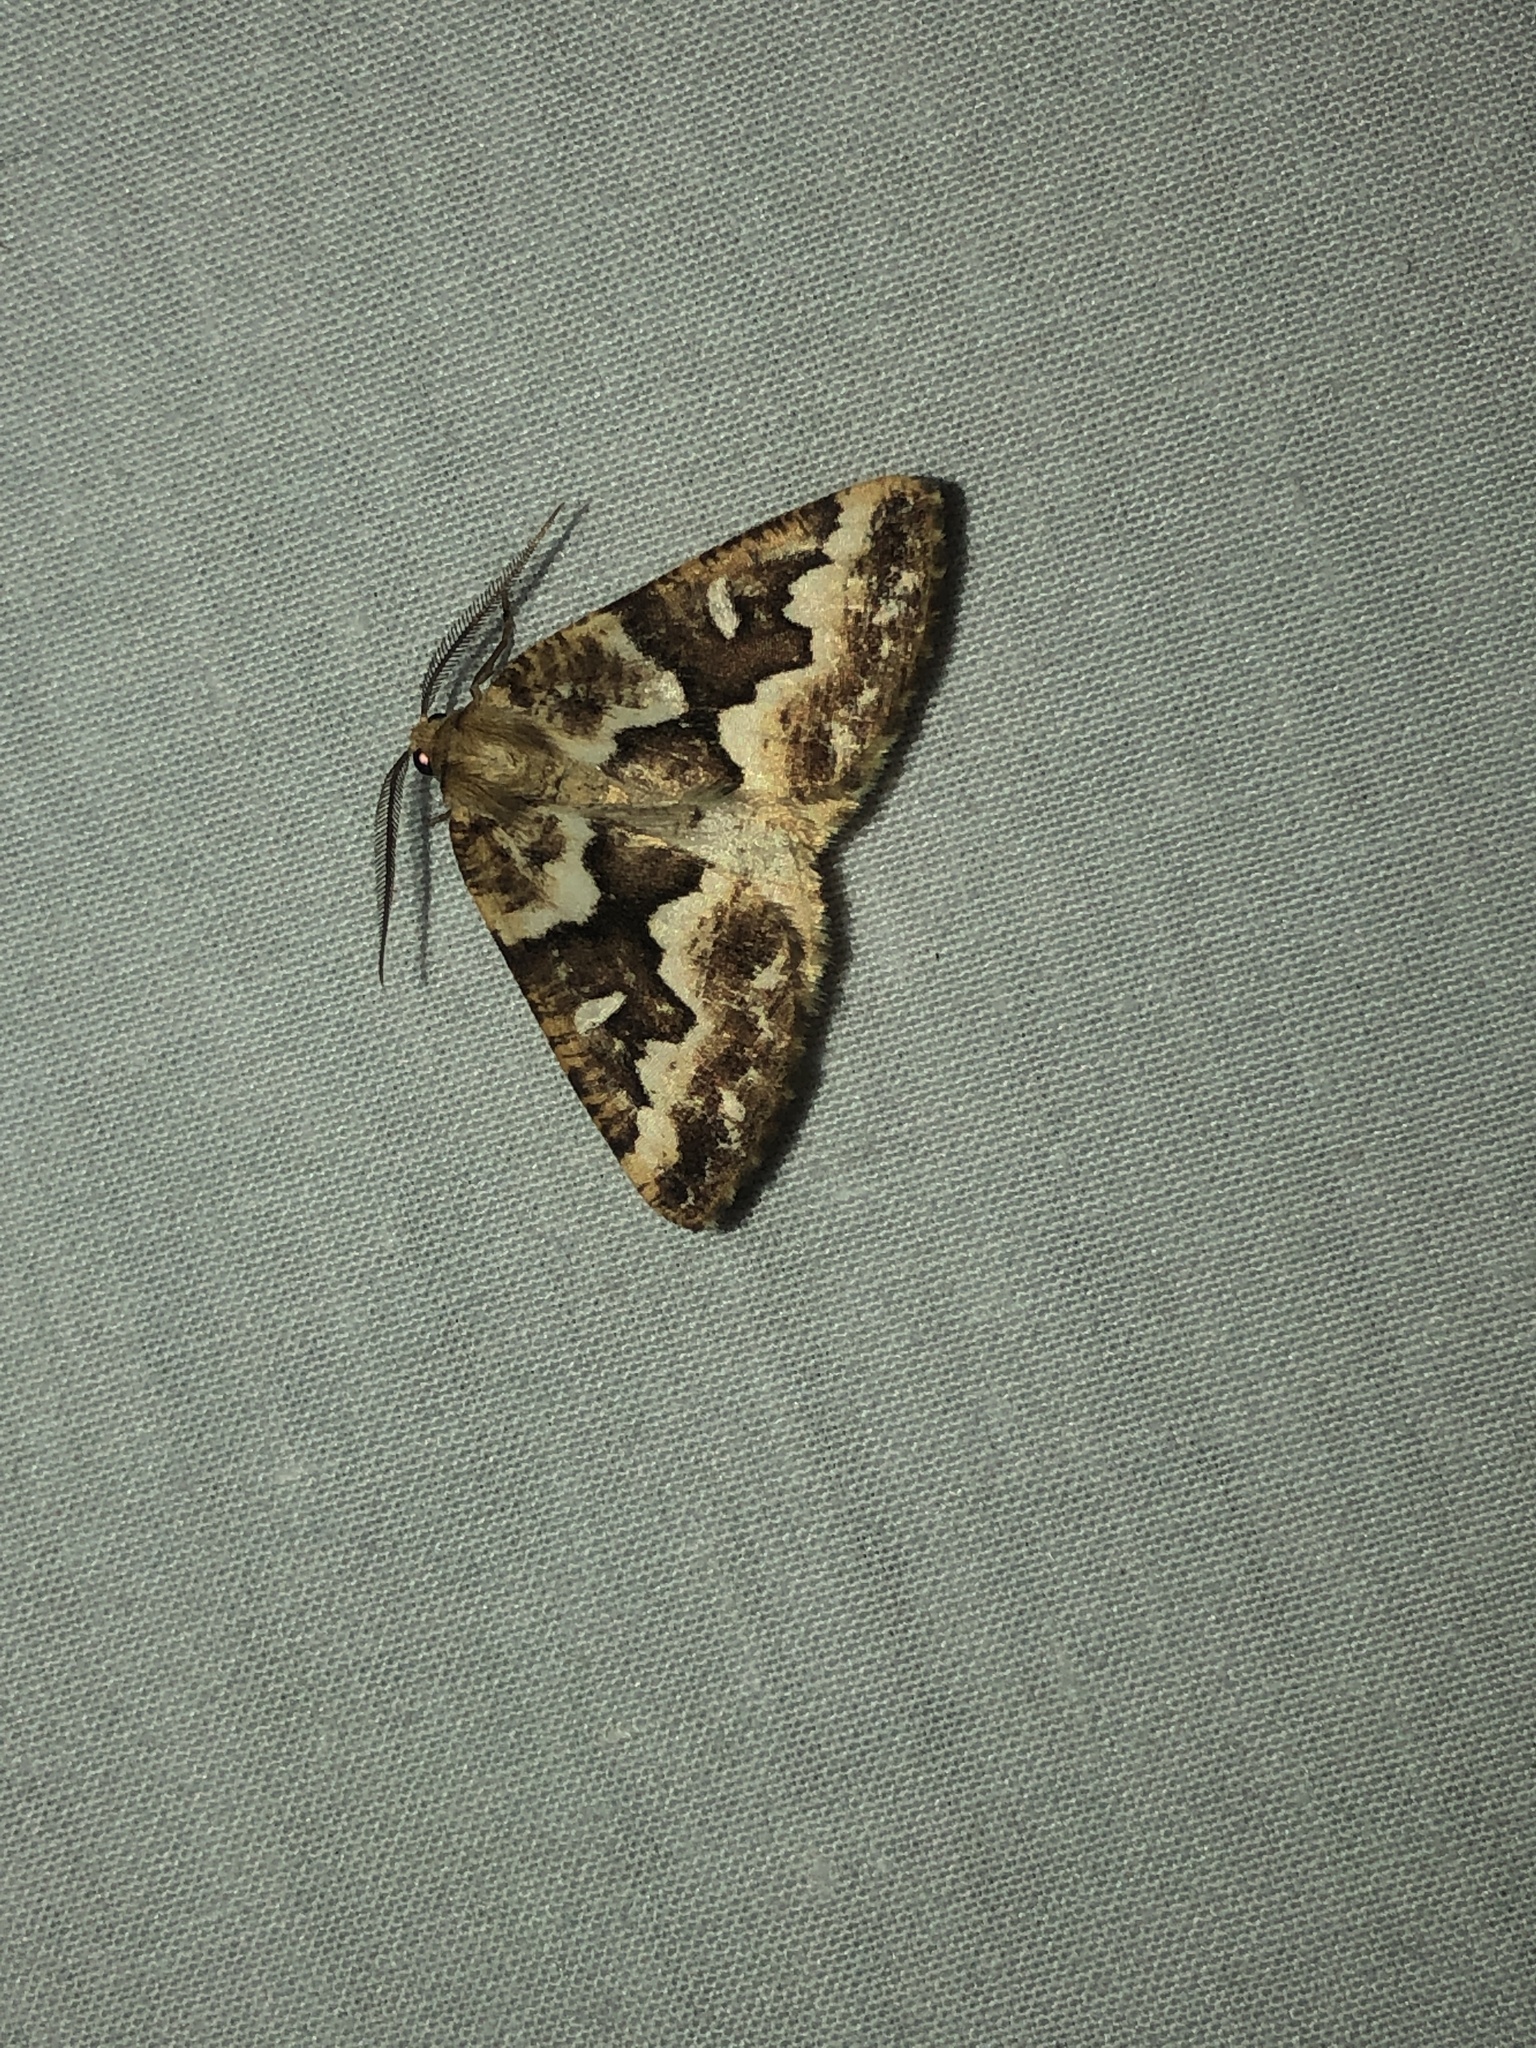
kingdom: Animalia
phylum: Arthropoda
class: Insecta
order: Lepidoptera
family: Geometridae
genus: Caripeta
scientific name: Caripeta divisata
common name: Gray spruce looper
